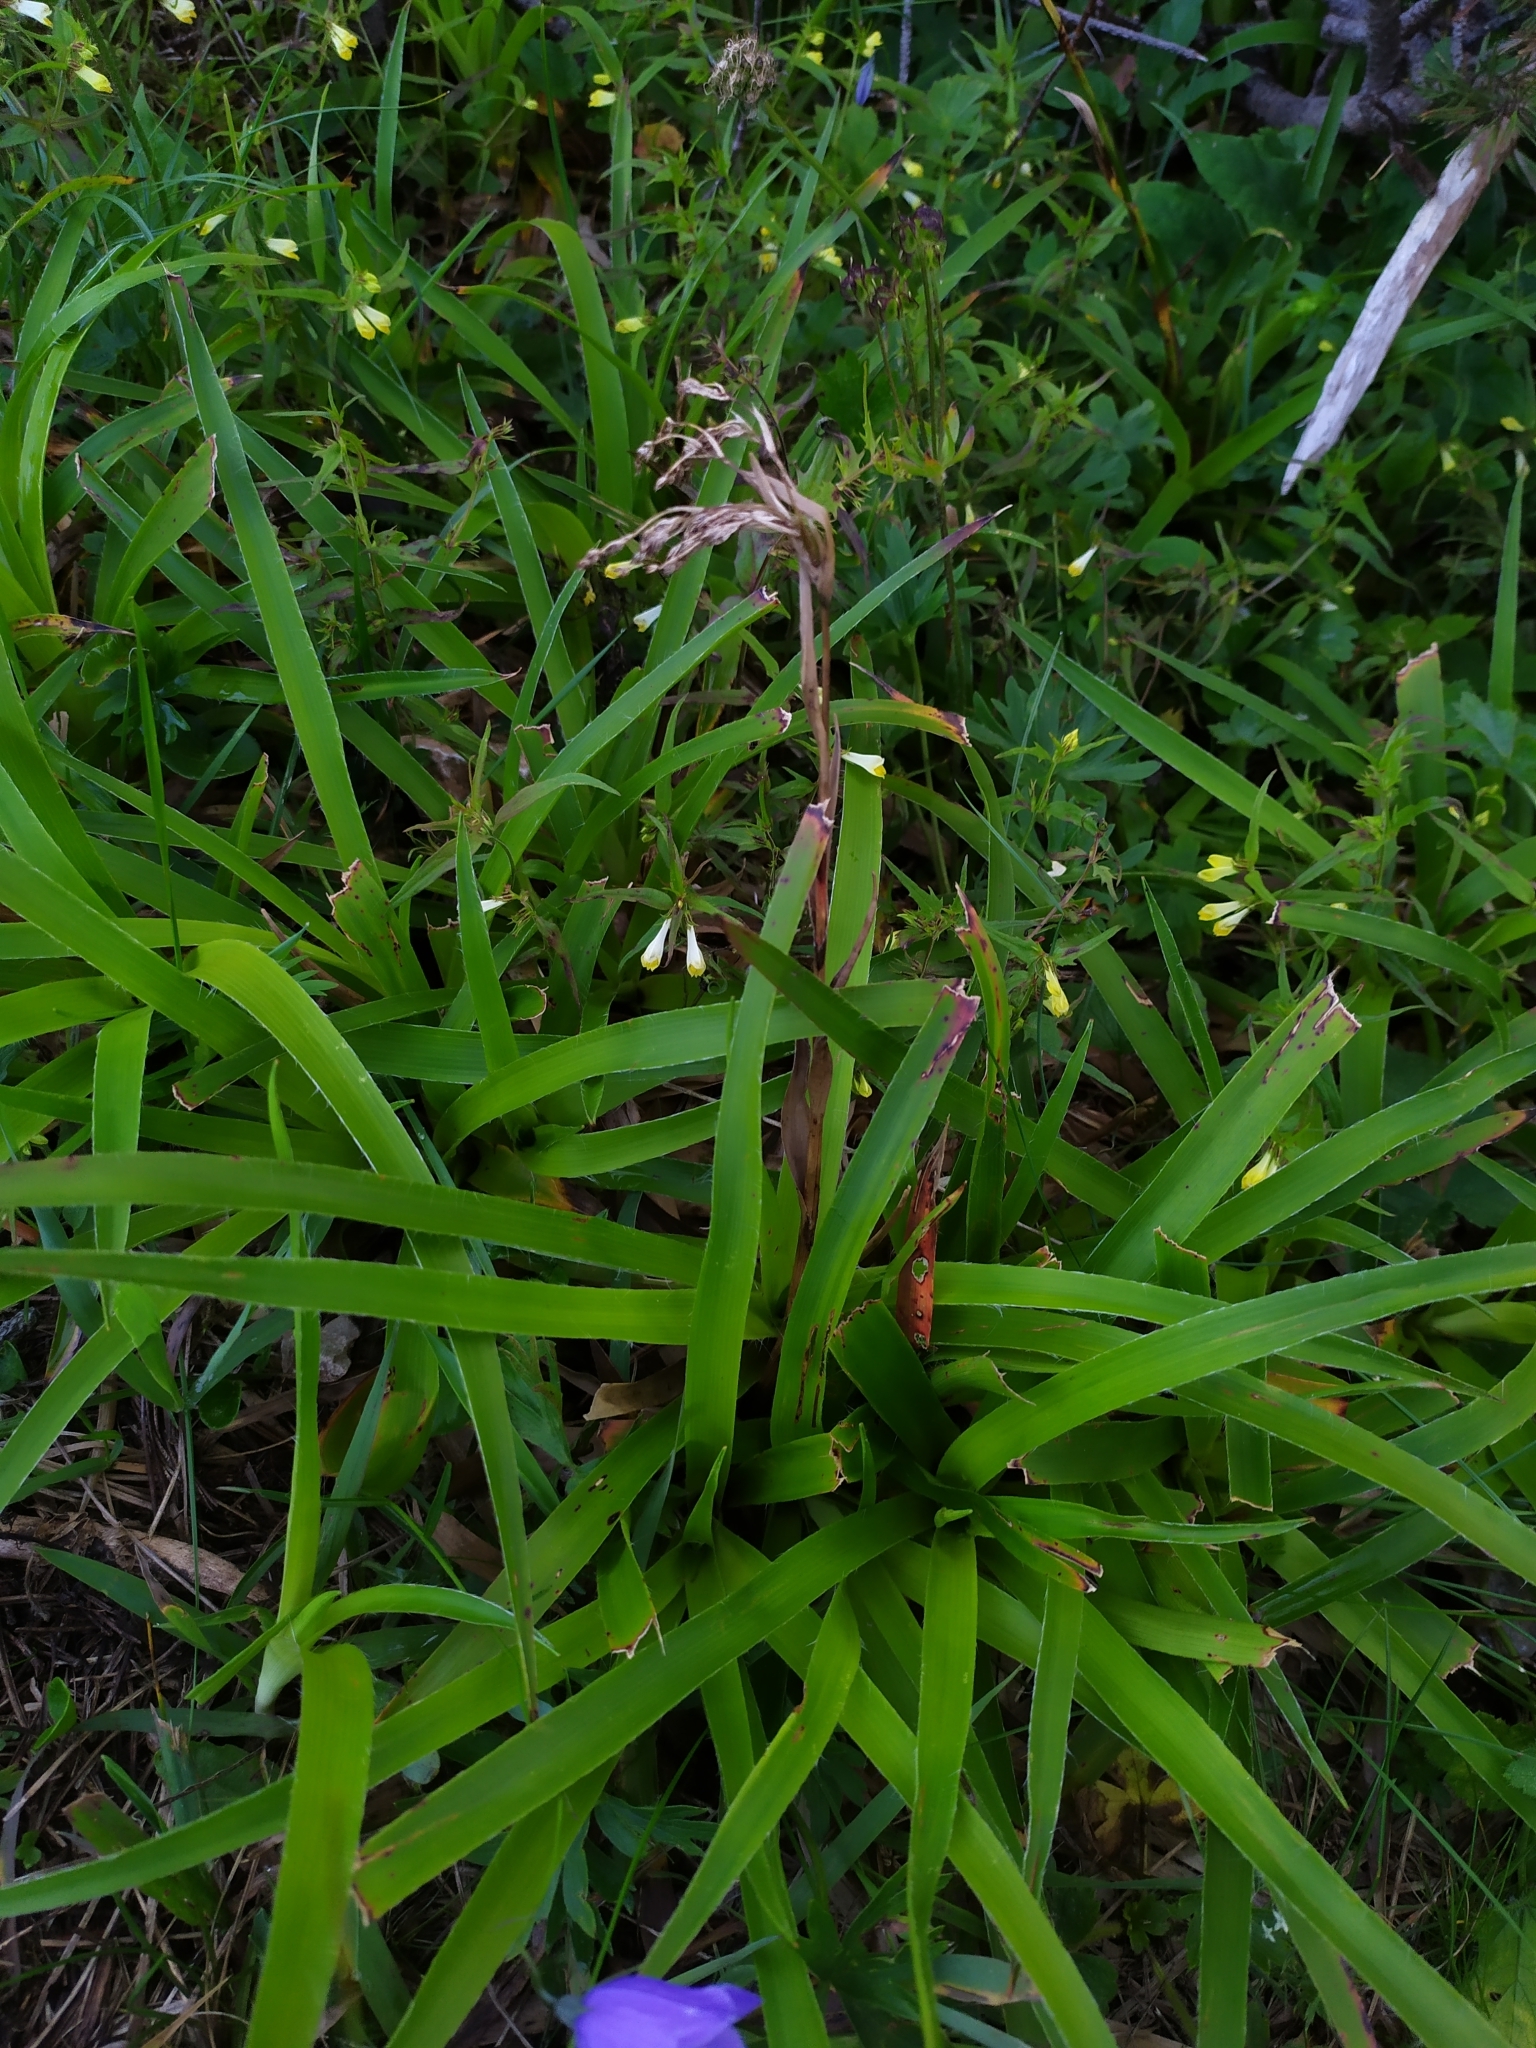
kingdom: Plantae
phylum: Tracheophyta
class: Liliopsida
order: Poales
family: Juncaceae
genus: Luzula
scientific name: Luzula sylvatica
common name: Great wood-rush
